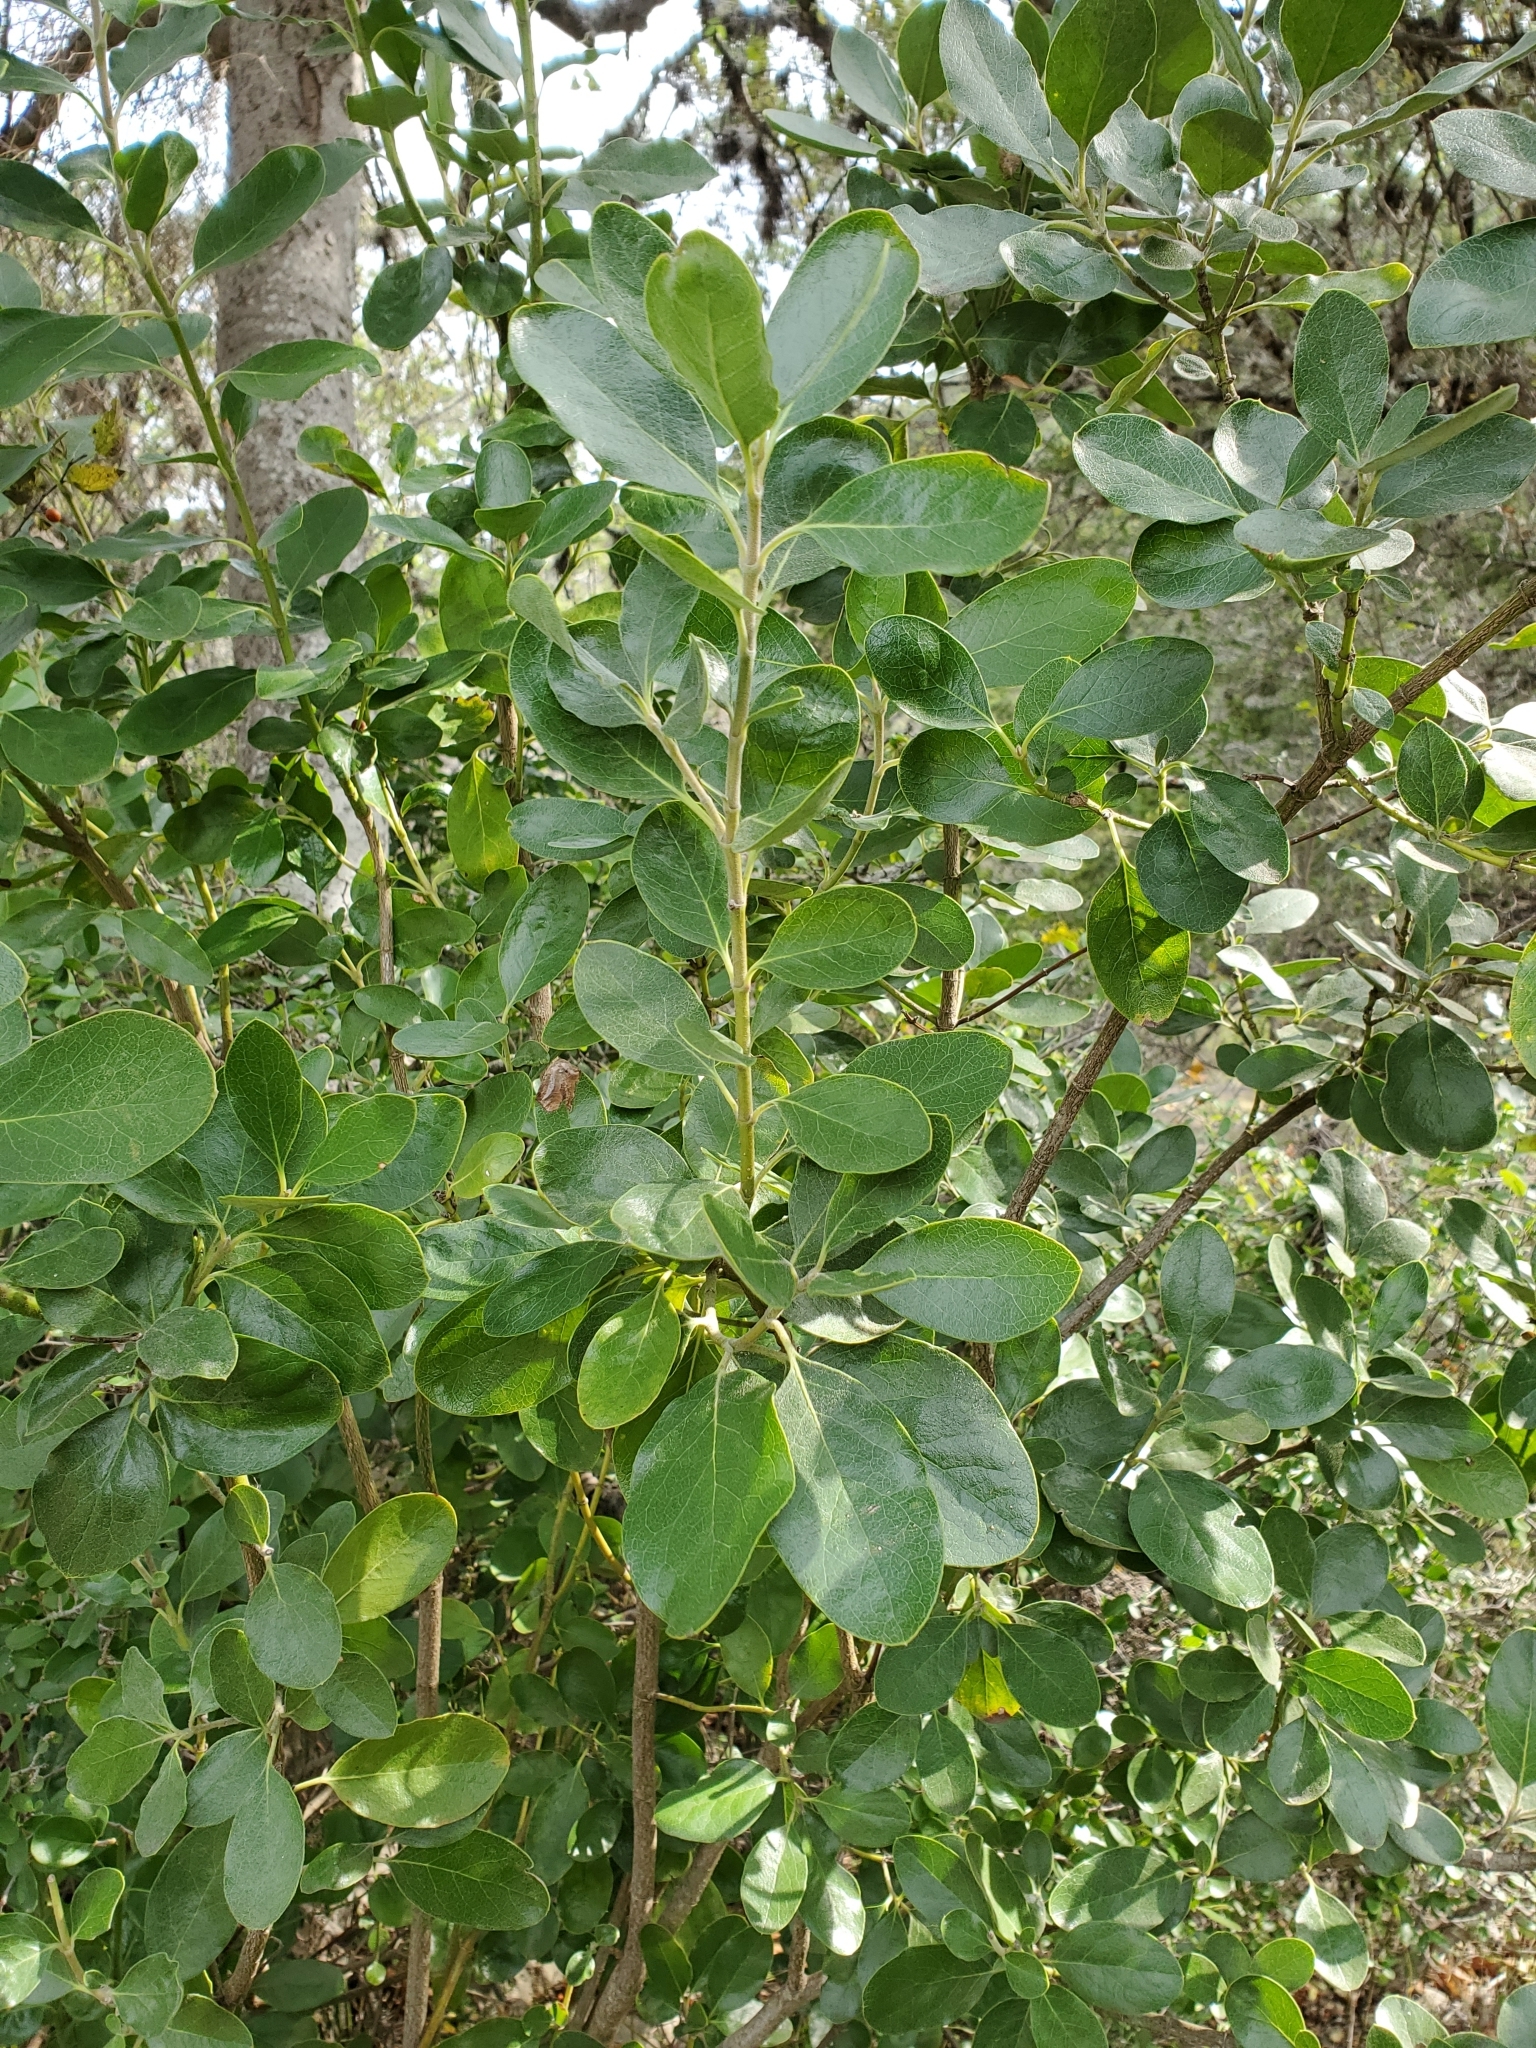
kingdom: Plantae
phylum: Tracheophyta
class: Magnoliopsida
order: Garryales
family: Garryaceae
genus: Garrya
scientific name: Garrya lindheimeri
